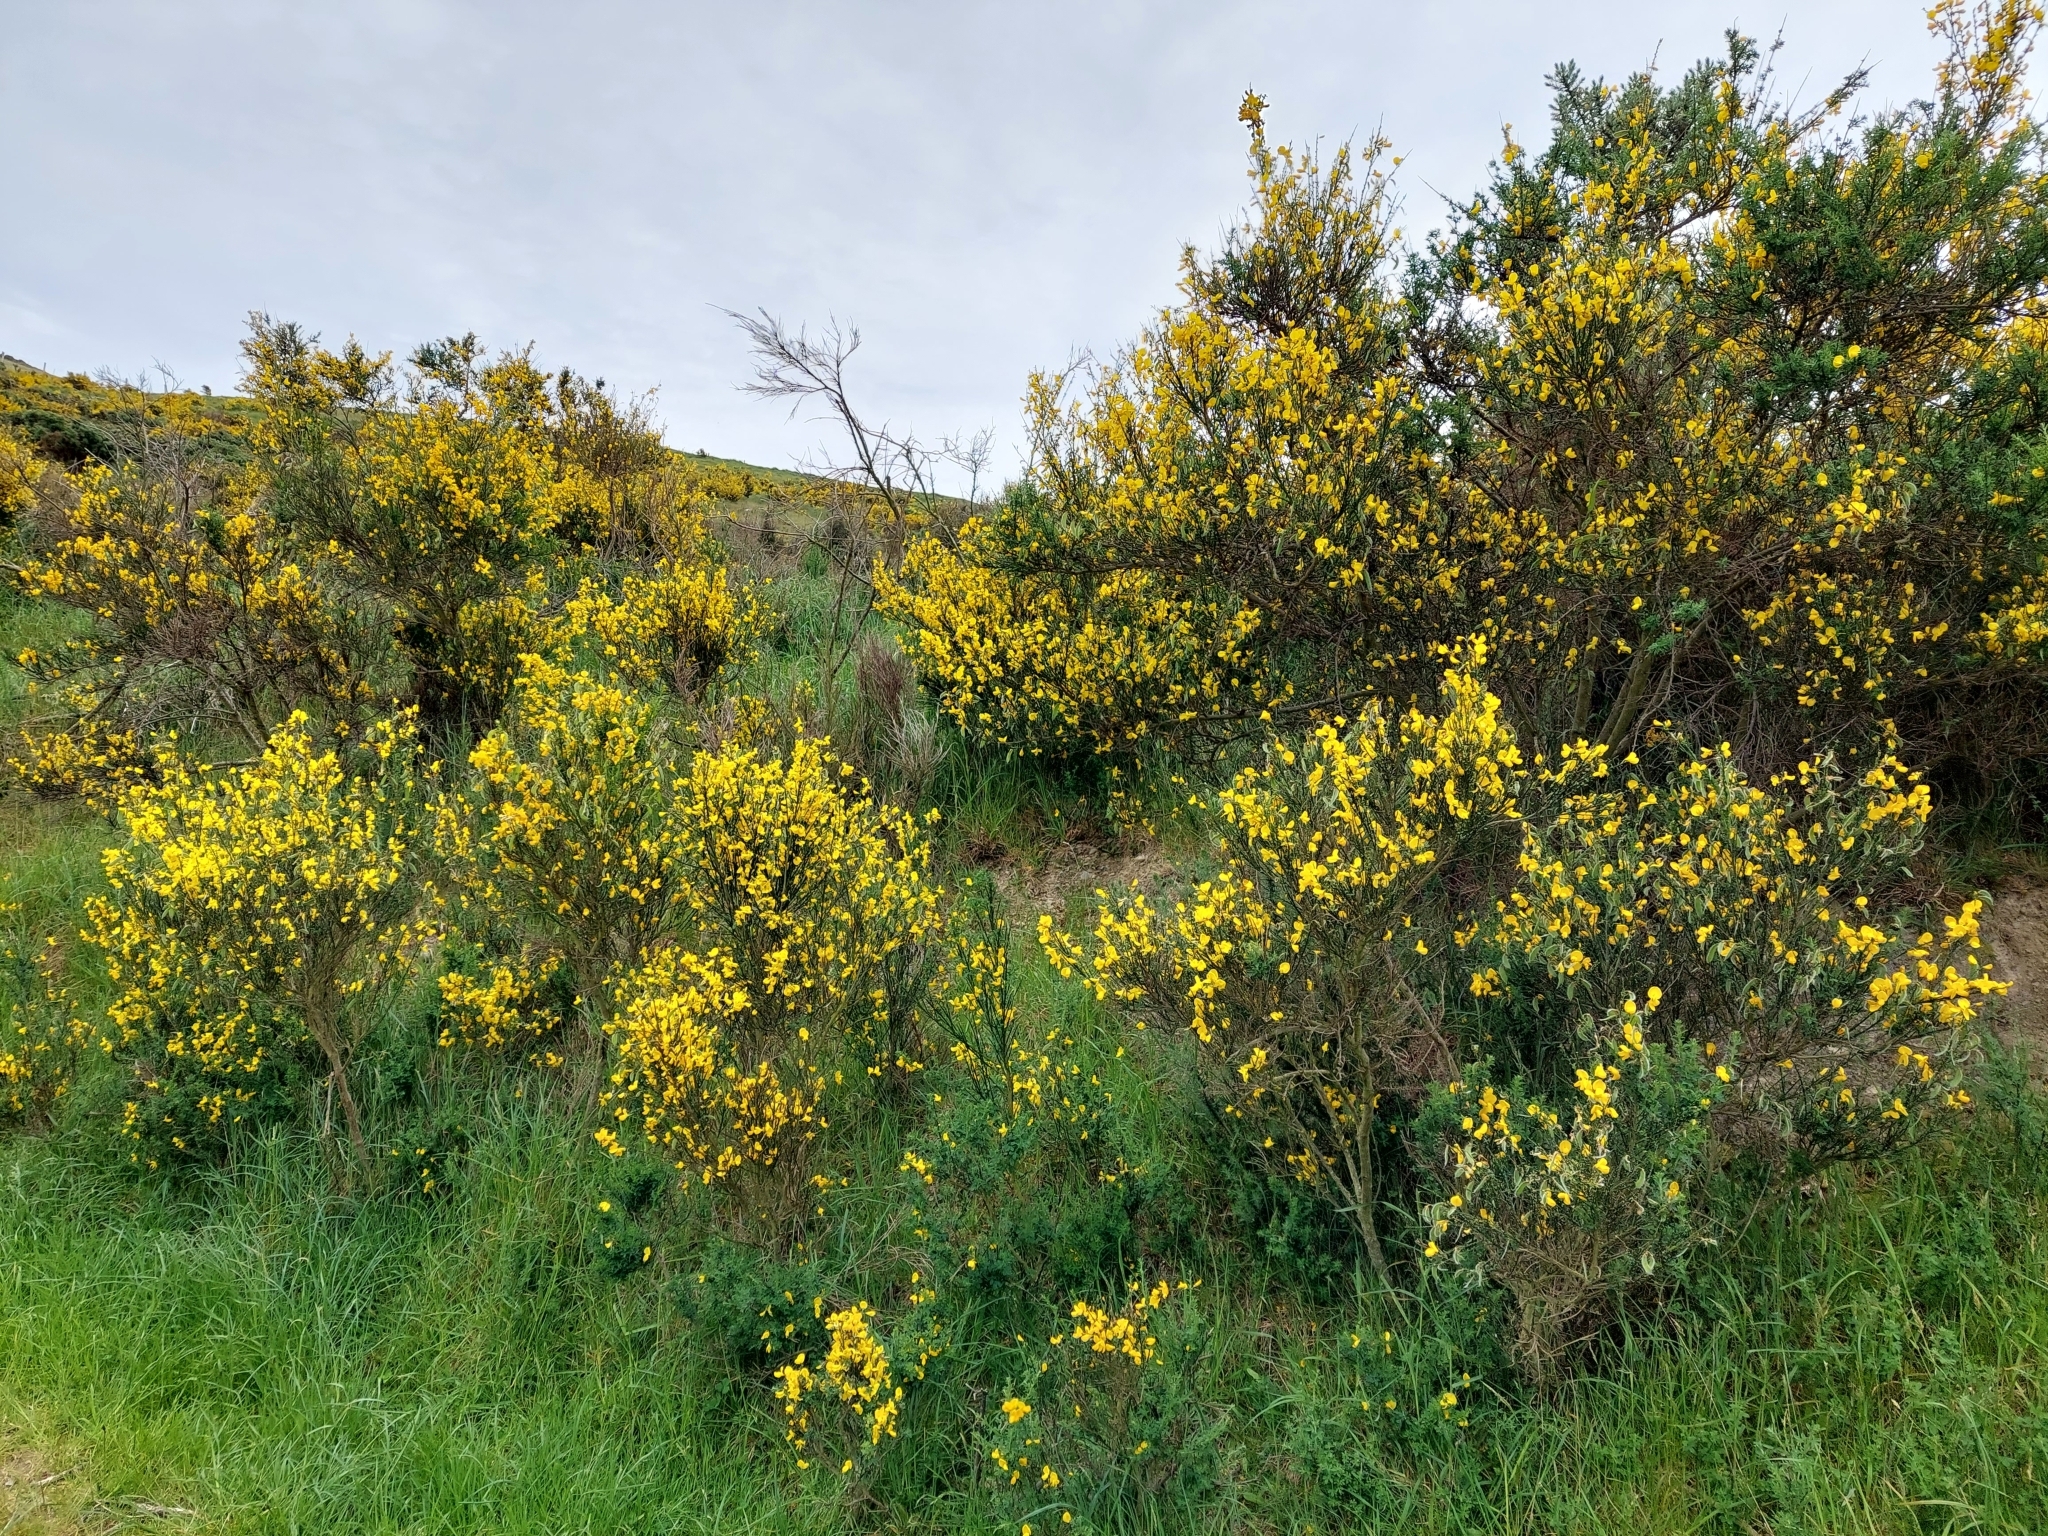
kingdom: Plantae
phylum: Tracheophyta
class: Magnoliopsida
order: Fabales
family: Fabaceae
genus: Cytisus
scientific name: Cytisus scoparius
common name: Scotch broom
